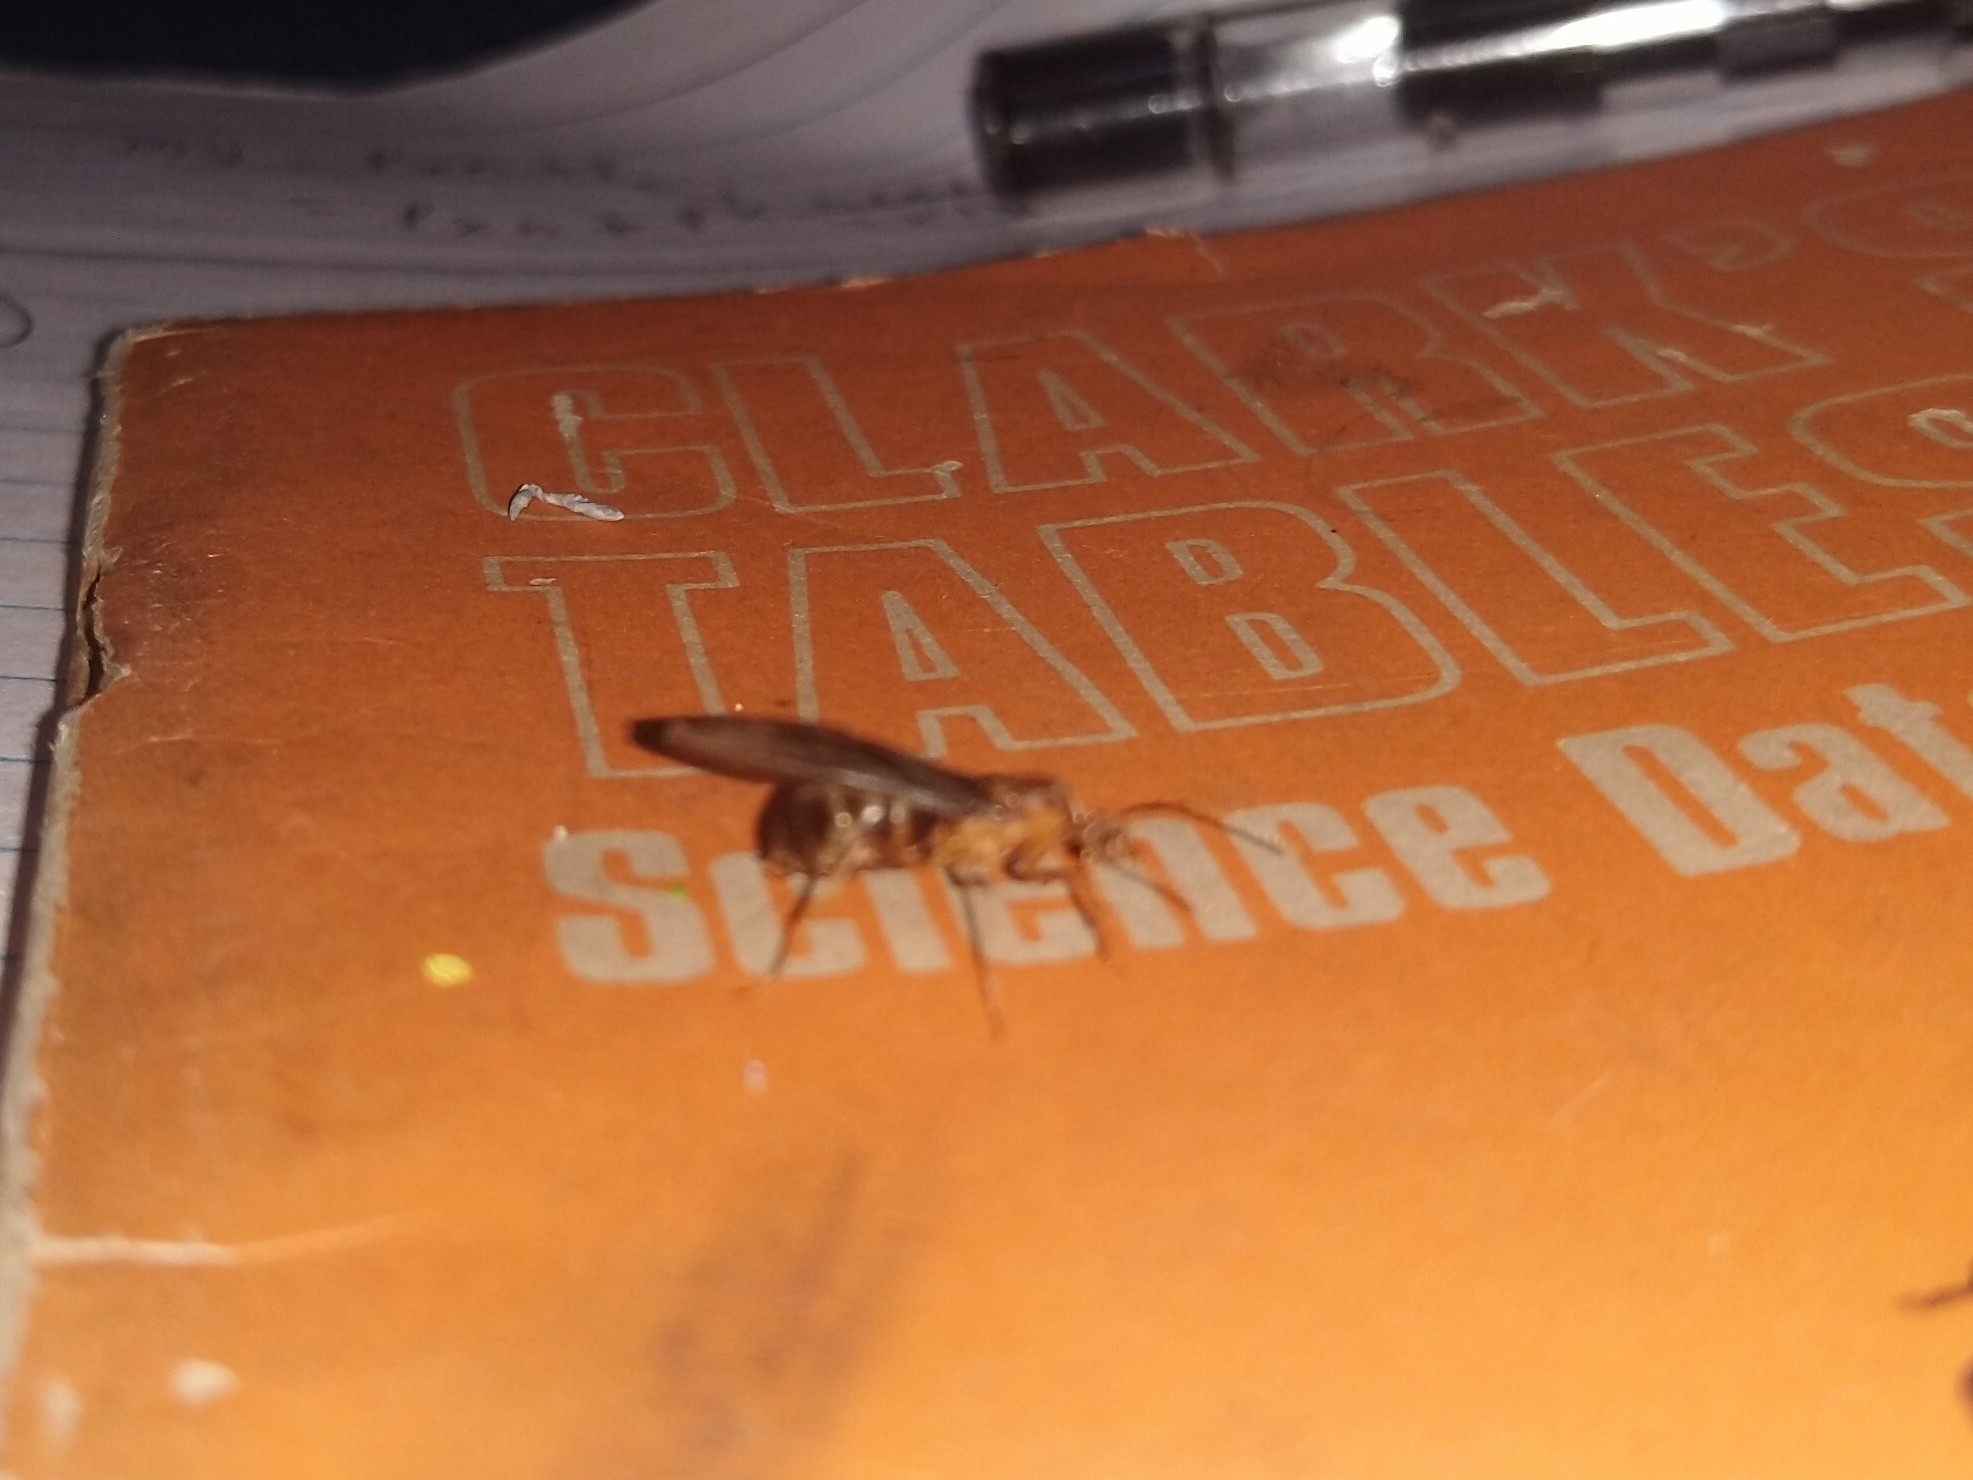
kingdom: Animalia
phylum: Arthropoda
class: Insecta
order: Hymenoptera
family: Formicidae
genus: Anoplolepis
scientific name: Anoplolepis gracilipes
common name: Ant
